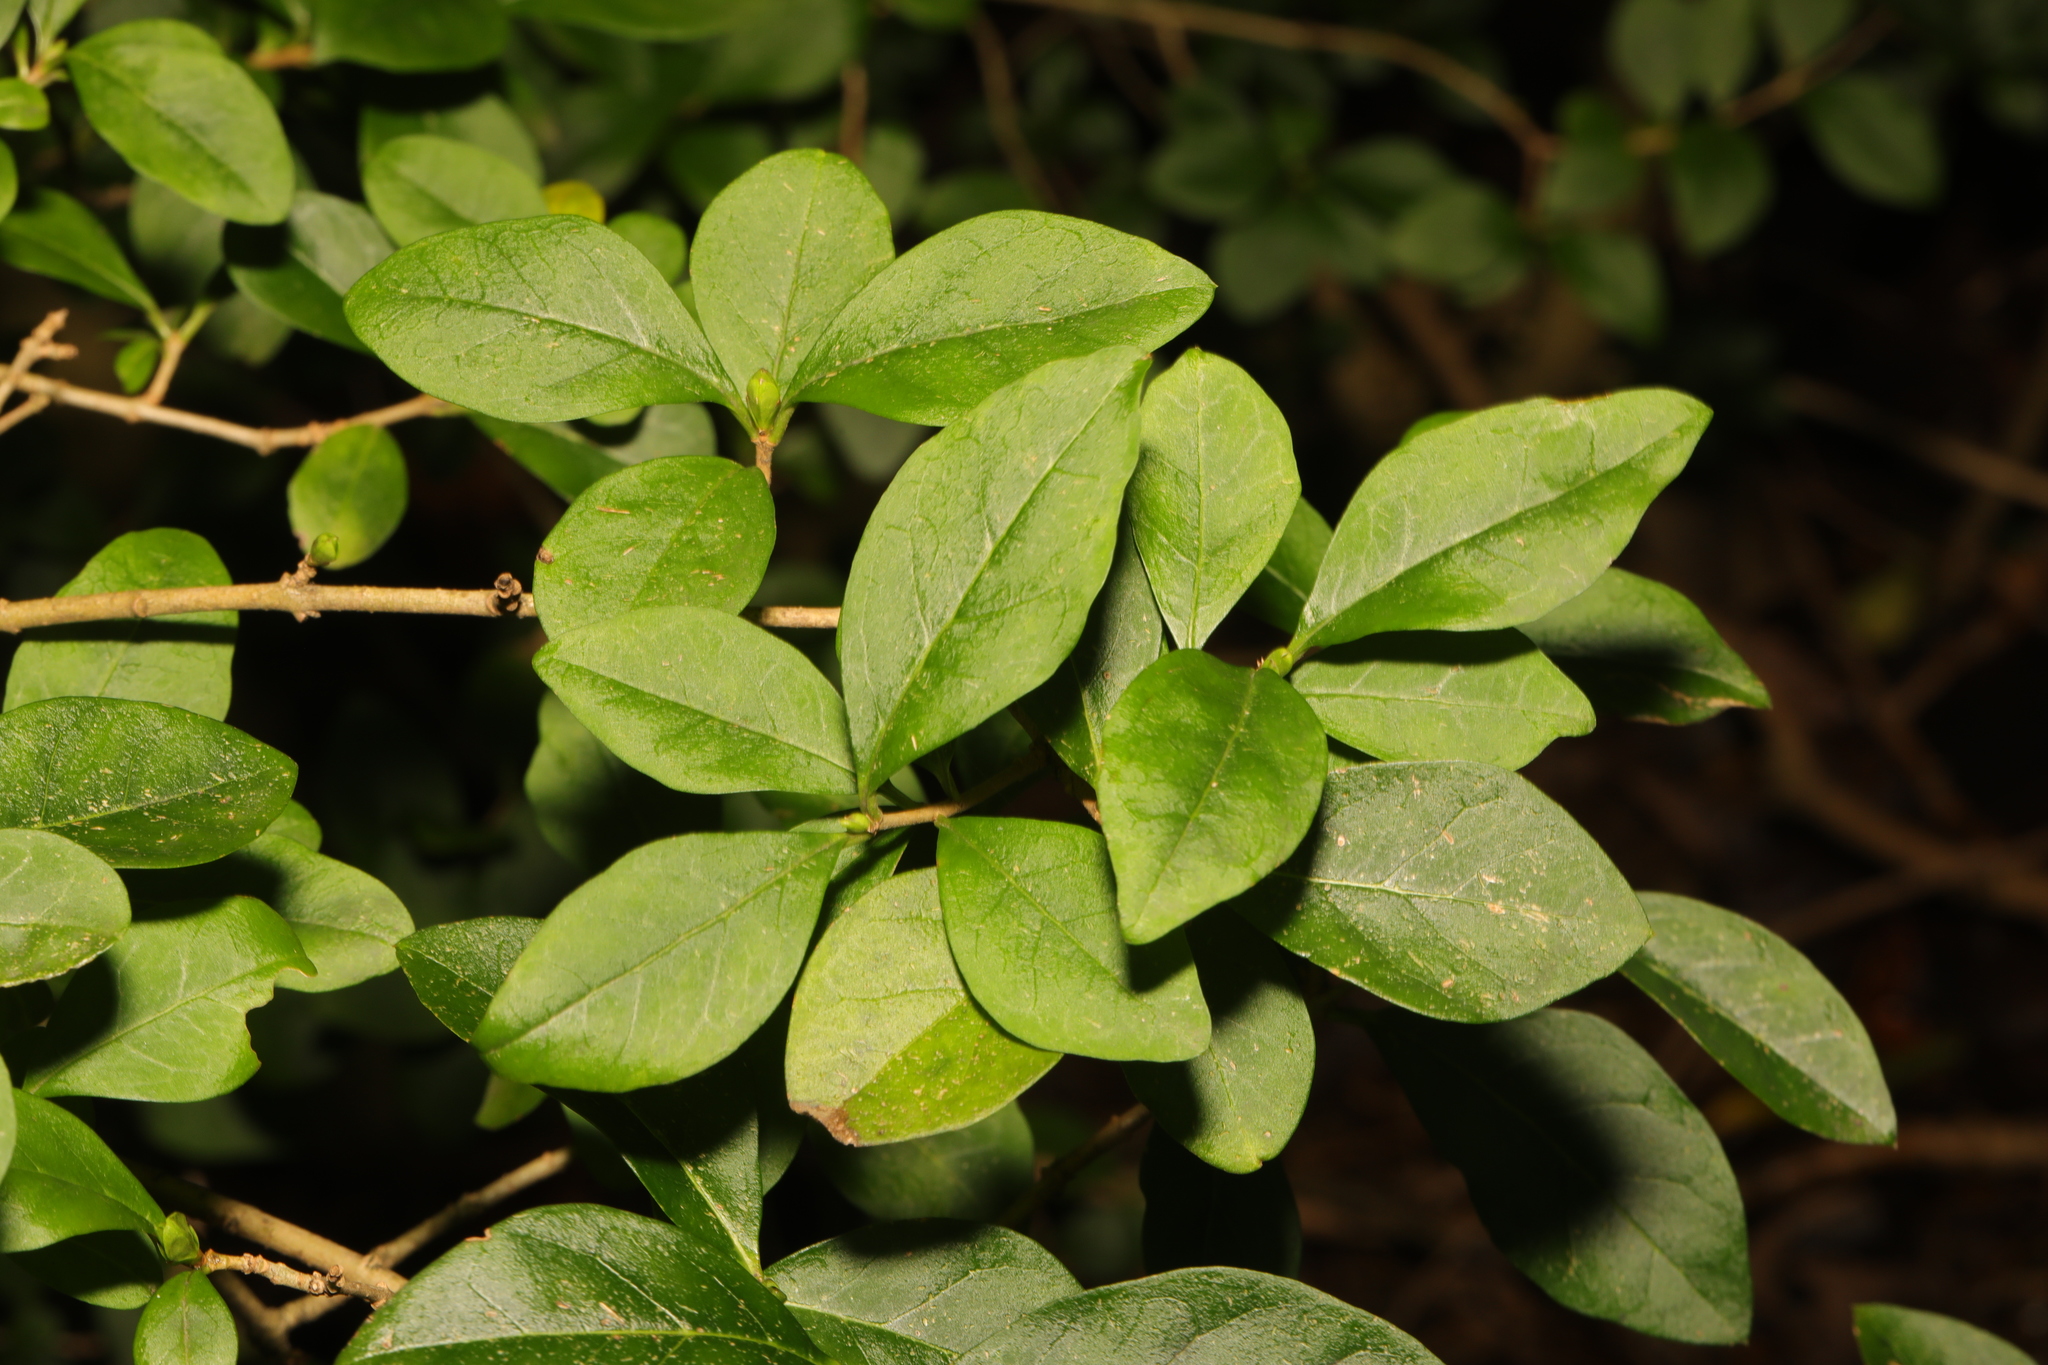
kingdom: Plantae
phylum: Tracheophyta
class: Magnoliopsida
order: Lamiales
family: Oleaceae
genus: Ligustrum
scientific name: Ligustrum ovalifolium
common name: California privet
